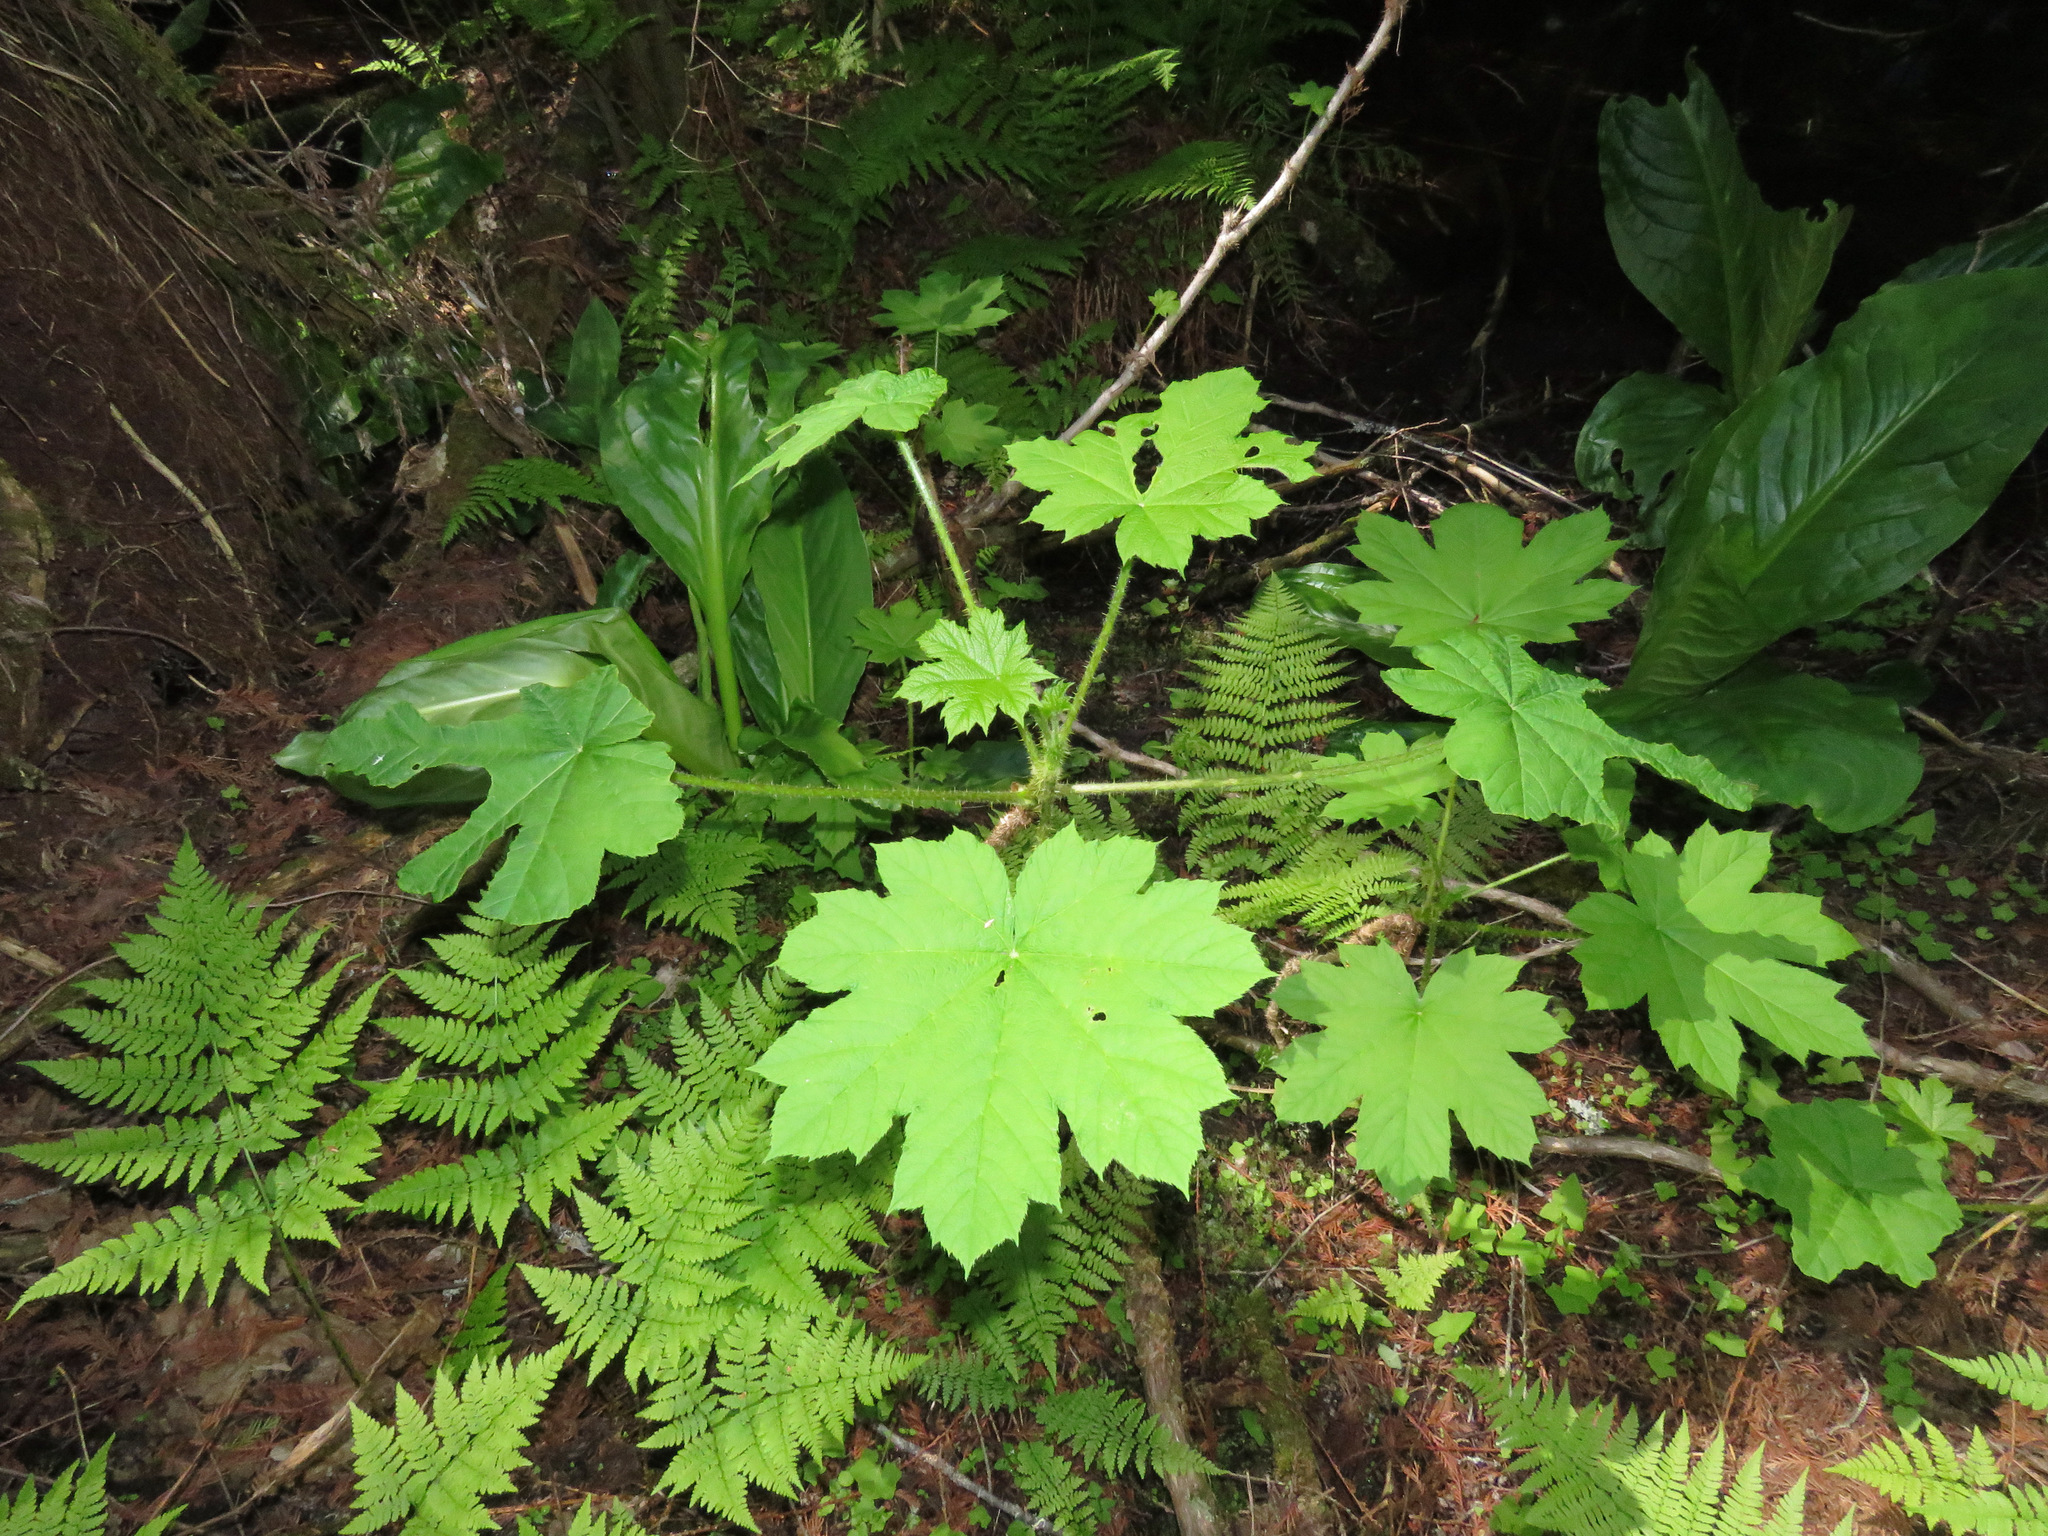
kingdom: Plantae
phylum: Tracheophyta
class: Magnoliopsida
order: Apiales
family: Araliaceae
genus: Oplopanax
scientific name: Oplopanax horridus
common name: Devil's walking-stick
